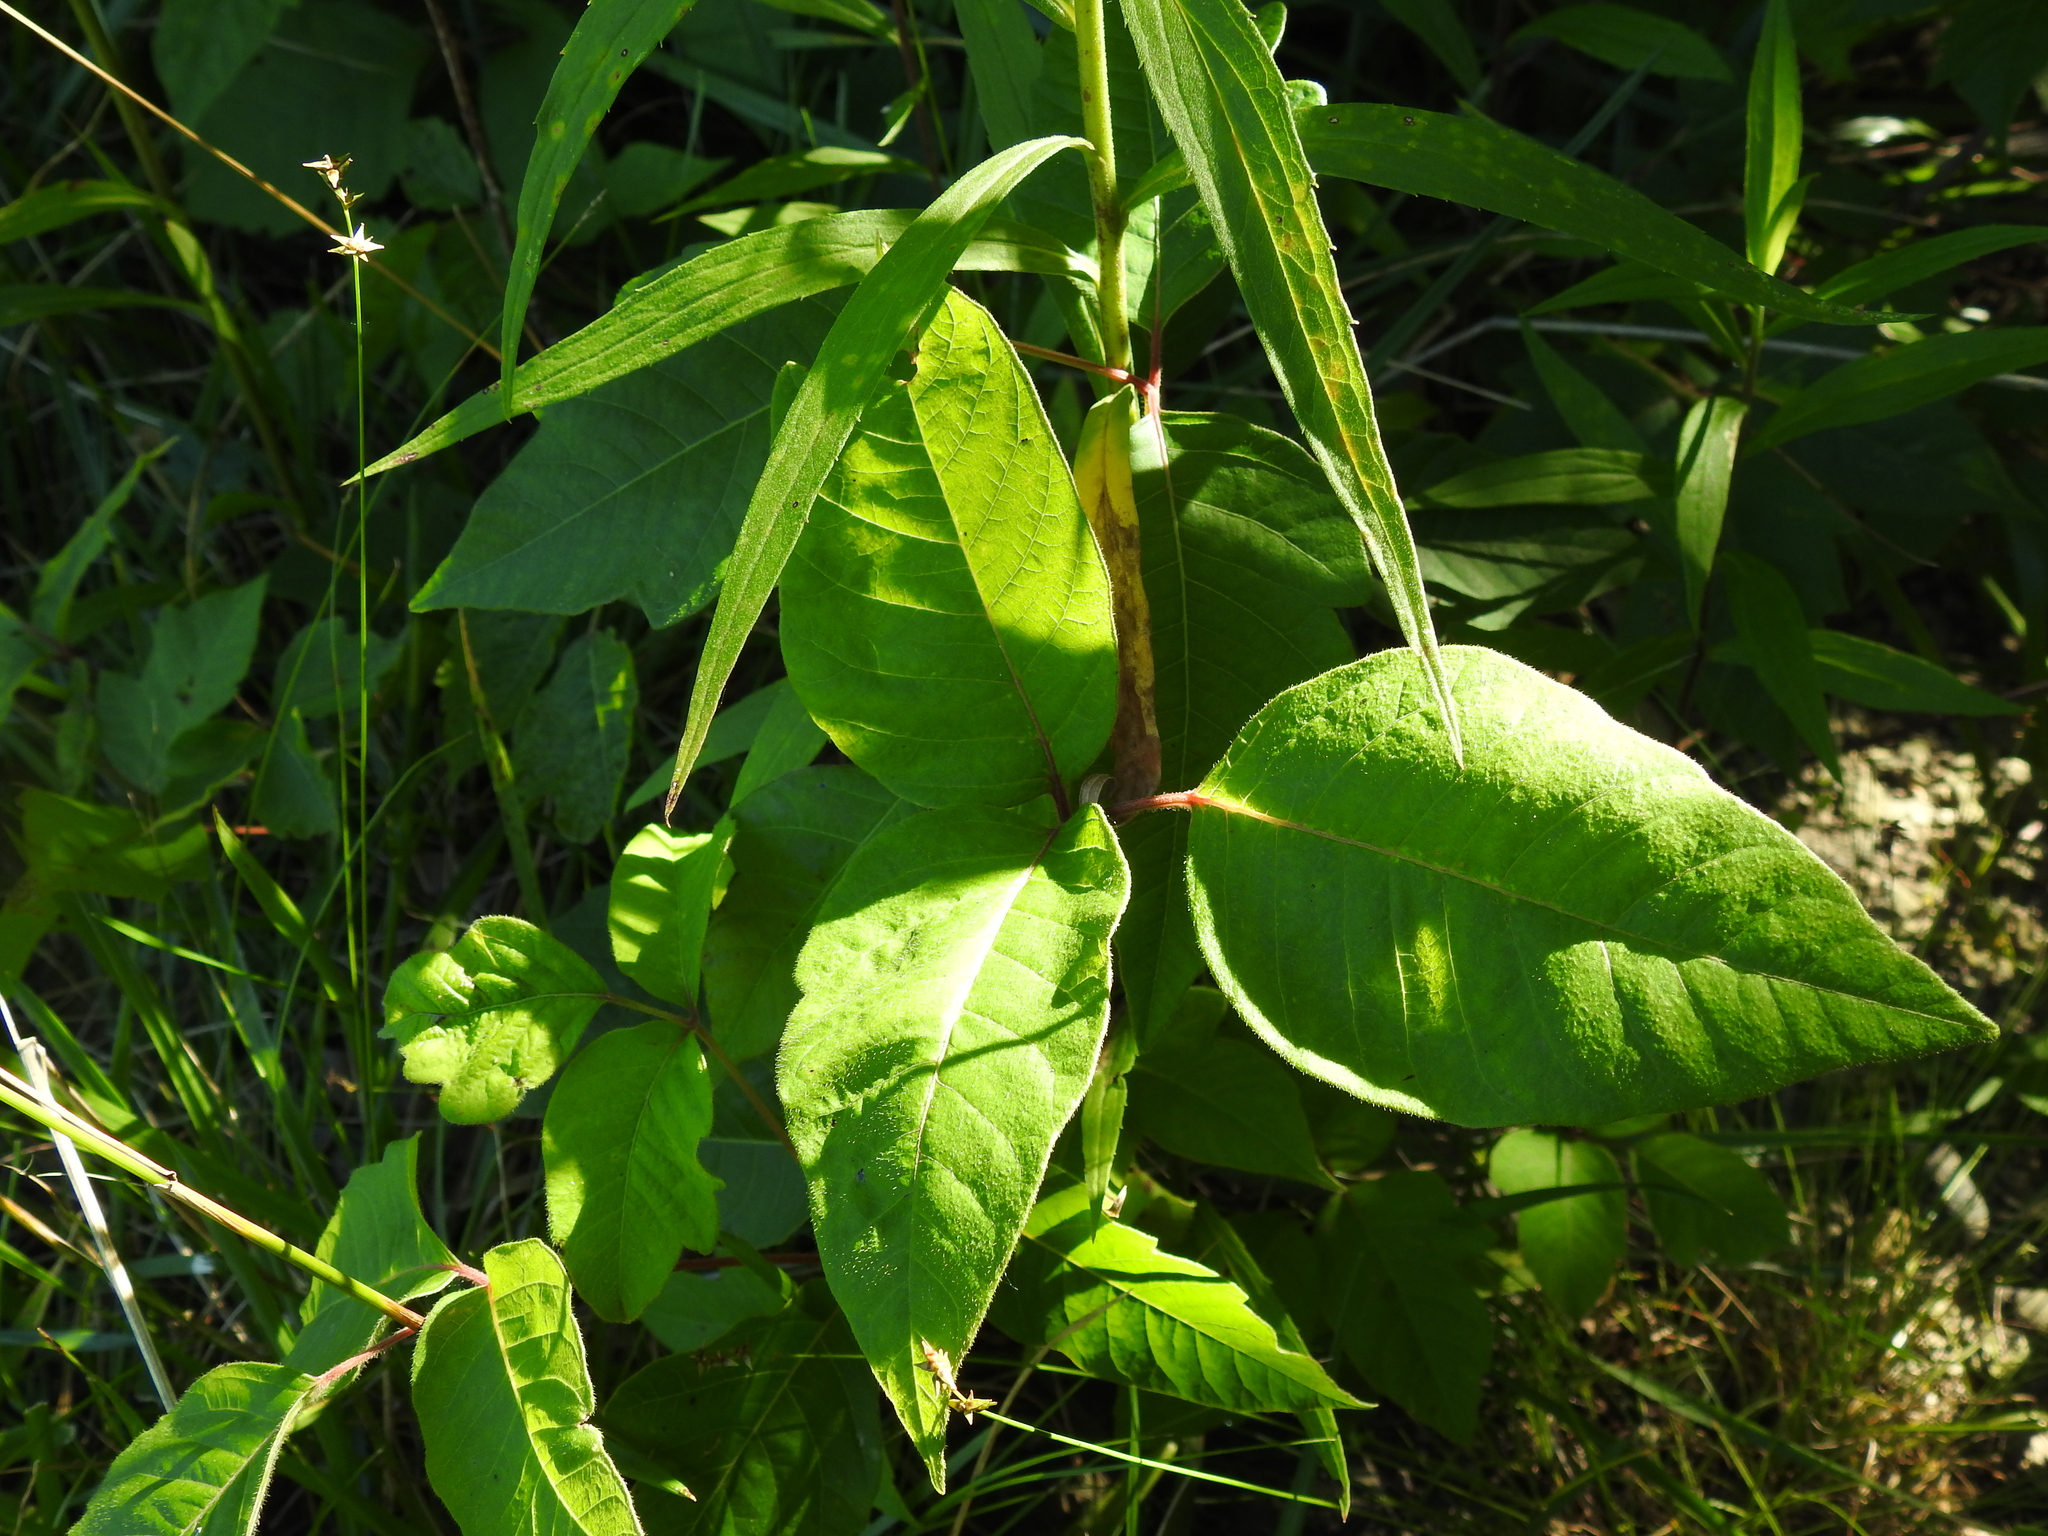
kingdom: Plantae
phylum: Tracheophyta
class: Magnoliopsida
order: Sapindales
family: Anacardiaceae
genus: Toxicodendron
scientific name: Toxicodendron radicans
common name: Poison ivy
